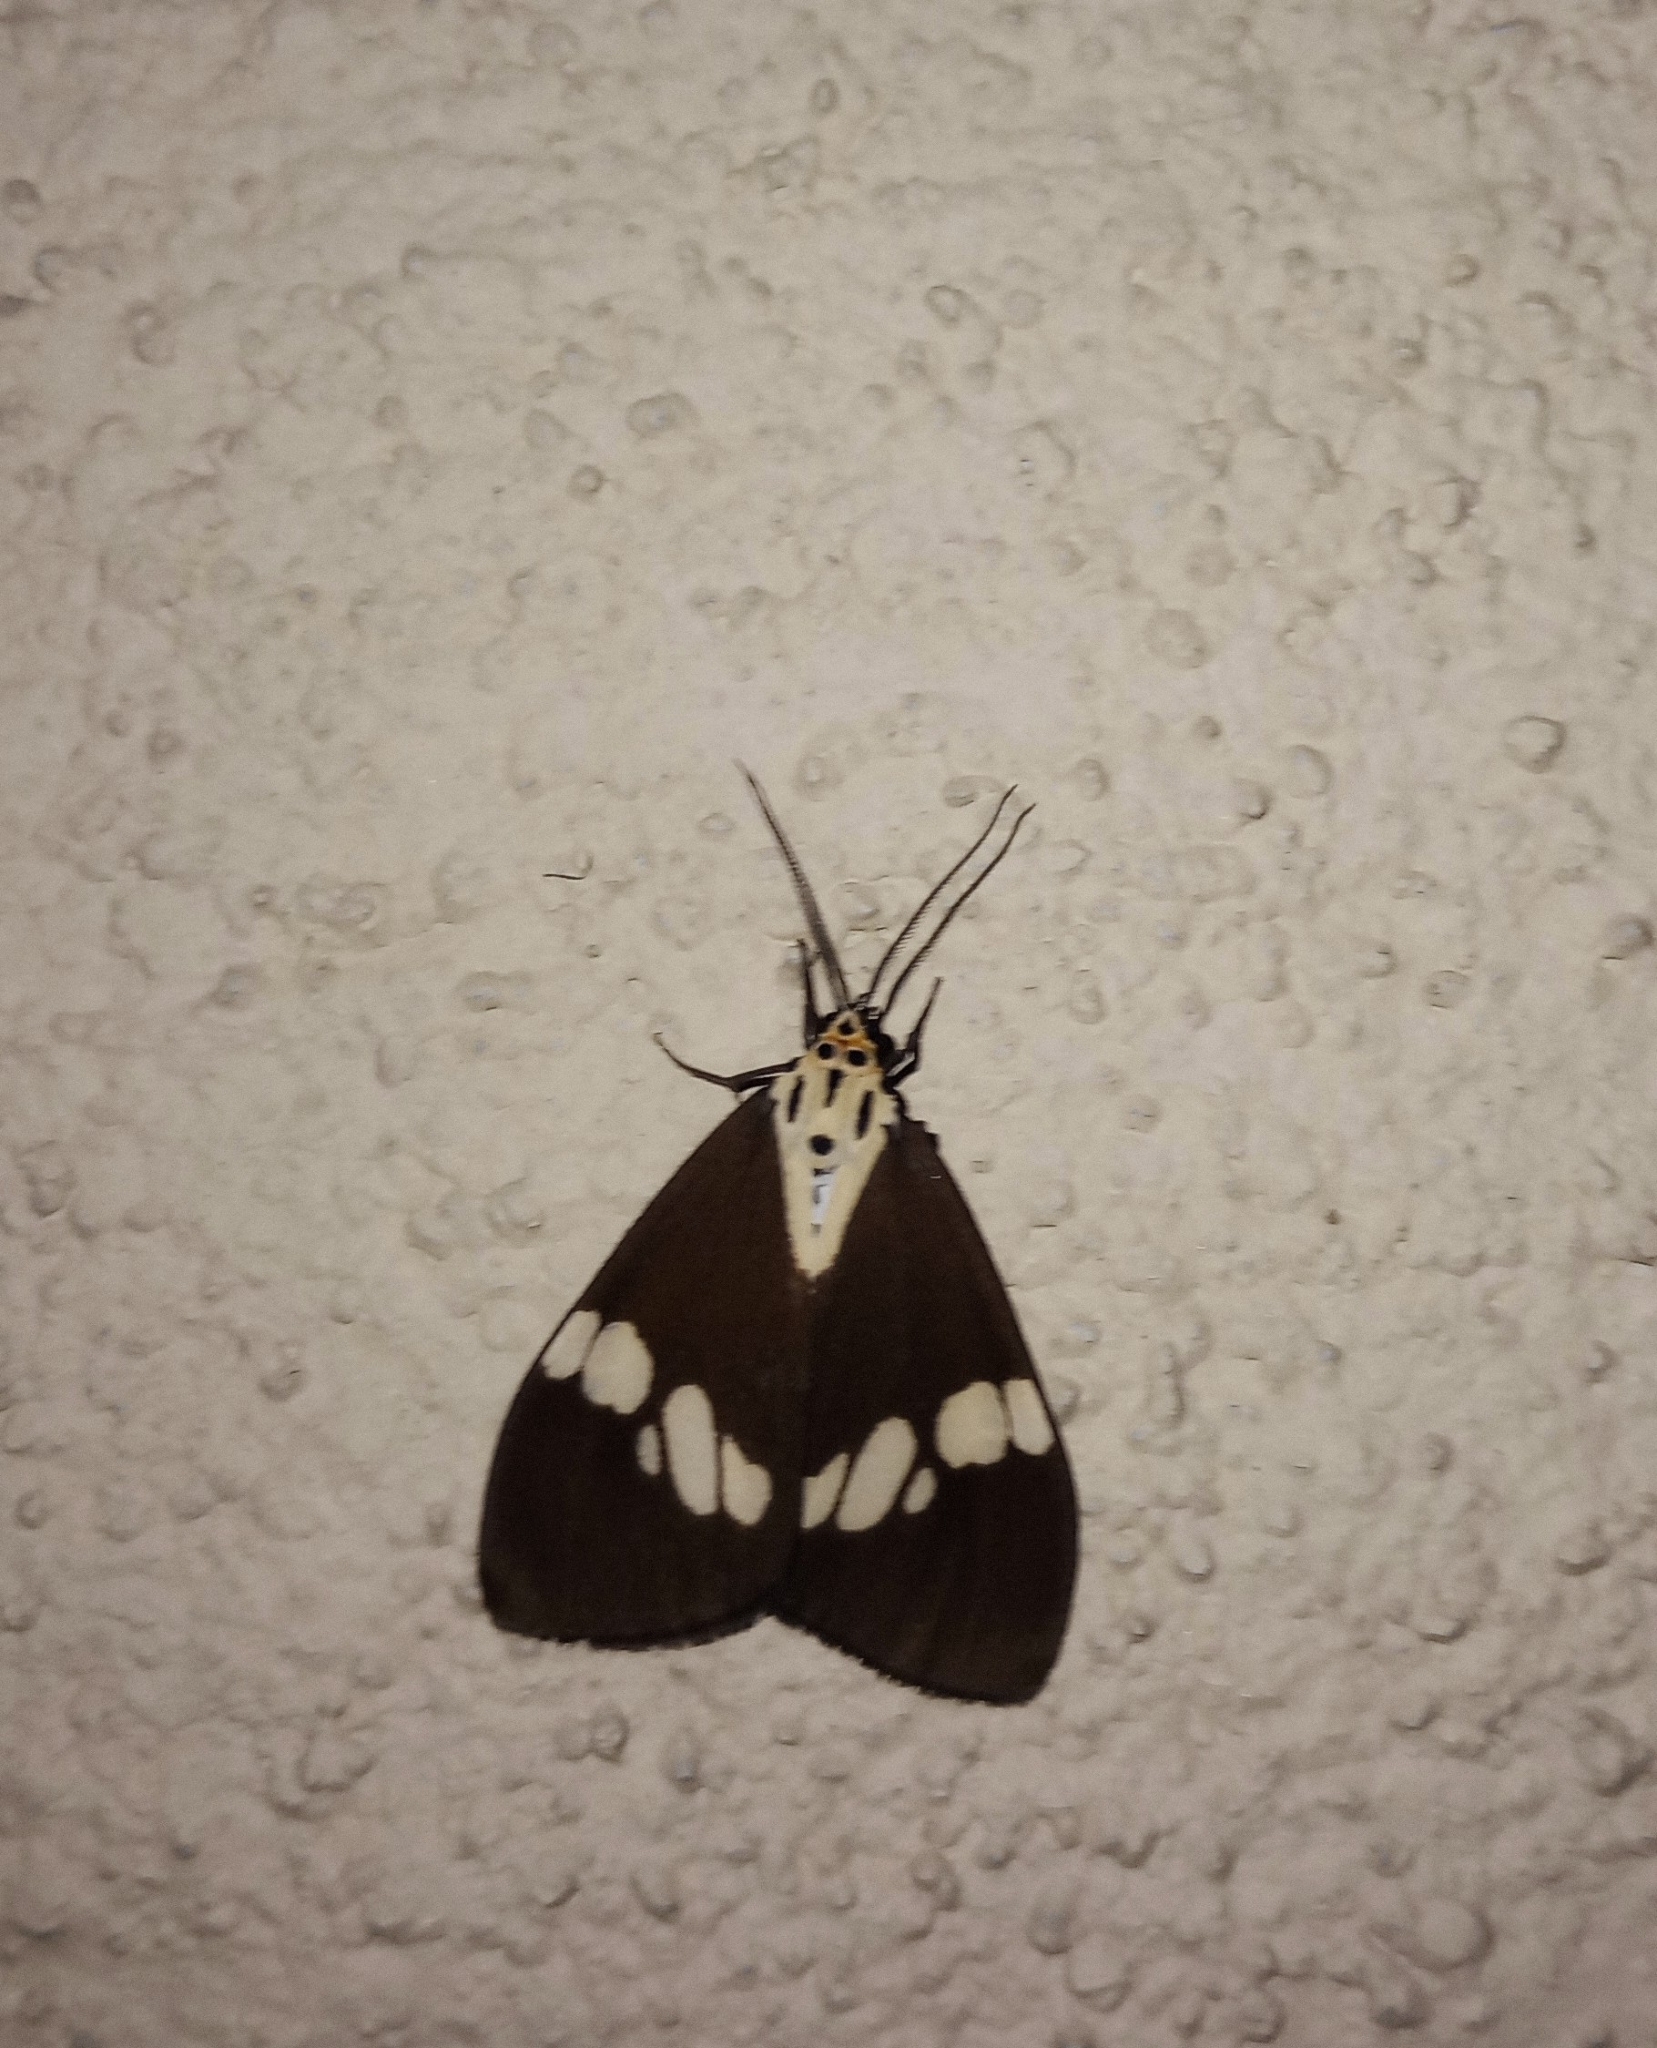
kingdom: Animalia
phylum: Arthropoda
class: Insecta
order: Lepidoptera
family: Erebidae
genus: Nyctemera
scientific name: Nyctemera lacticinia
